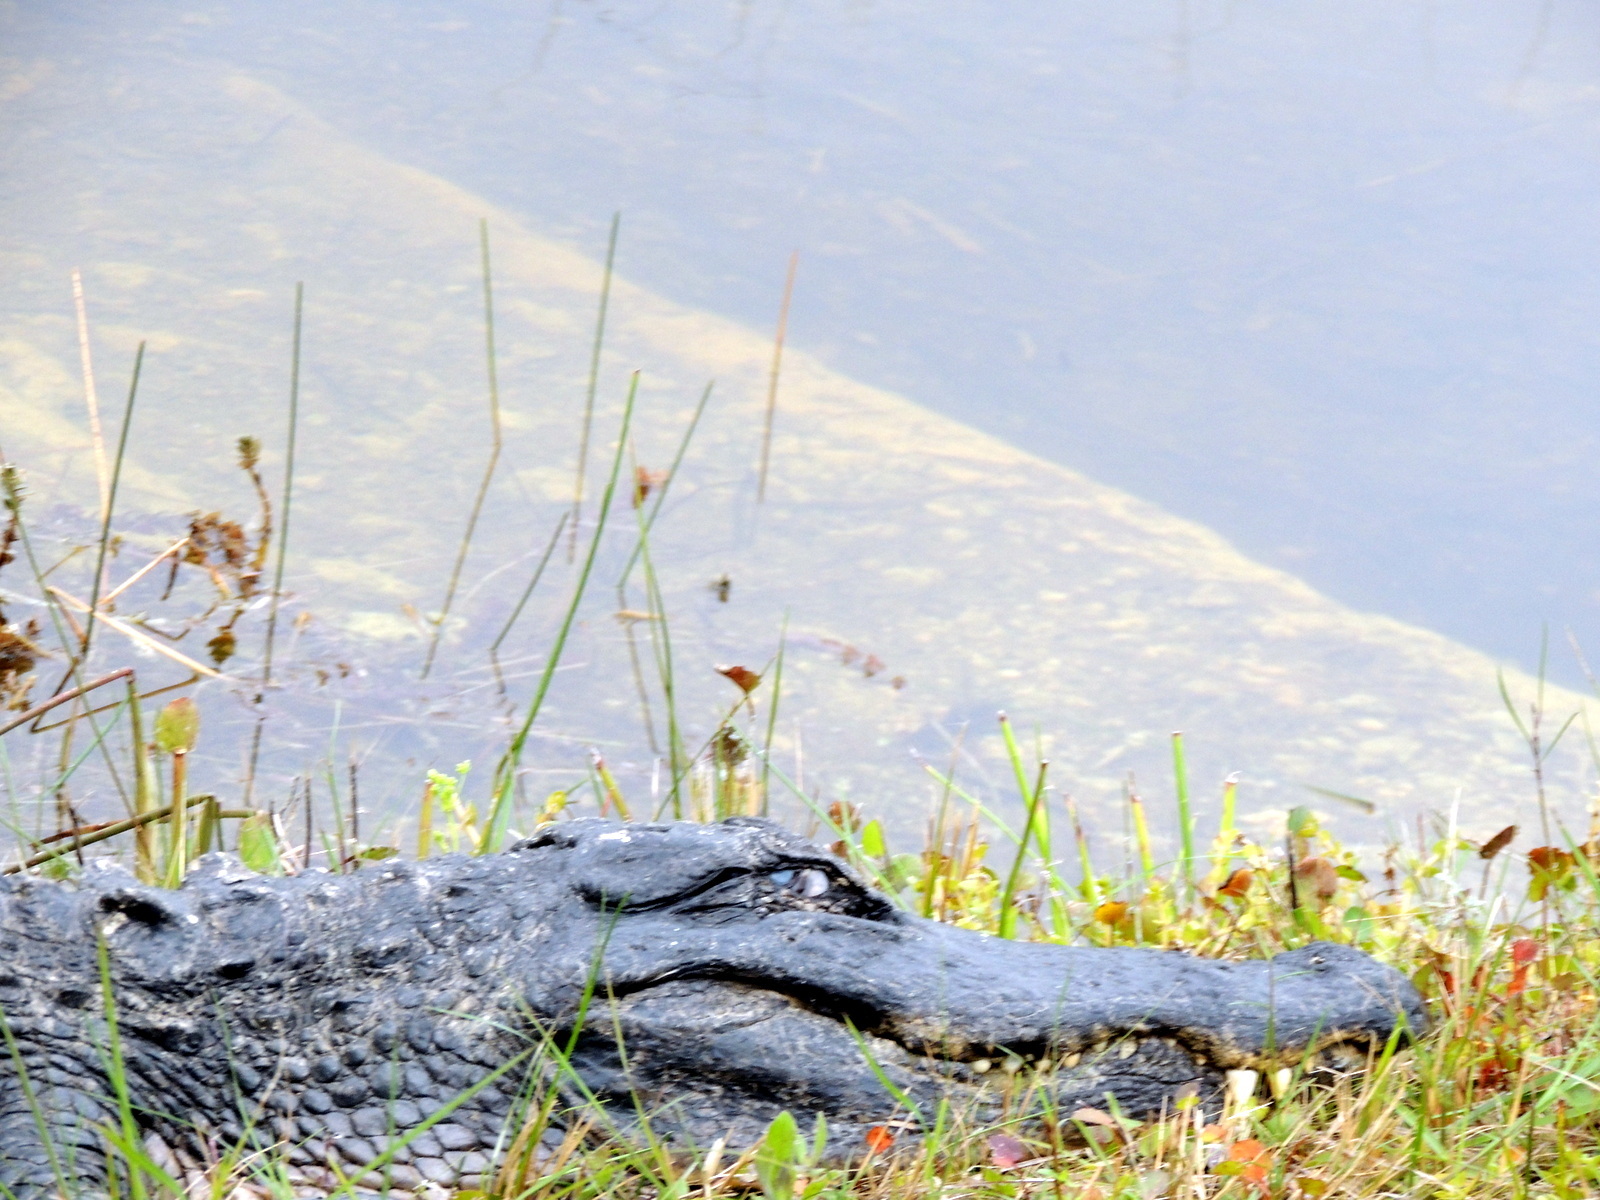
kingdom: Animalia
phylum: Chordata
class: Crocodylia
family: Alligatoridae
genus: Alligator
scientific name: Alligator mississippiensis
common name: American alligator
